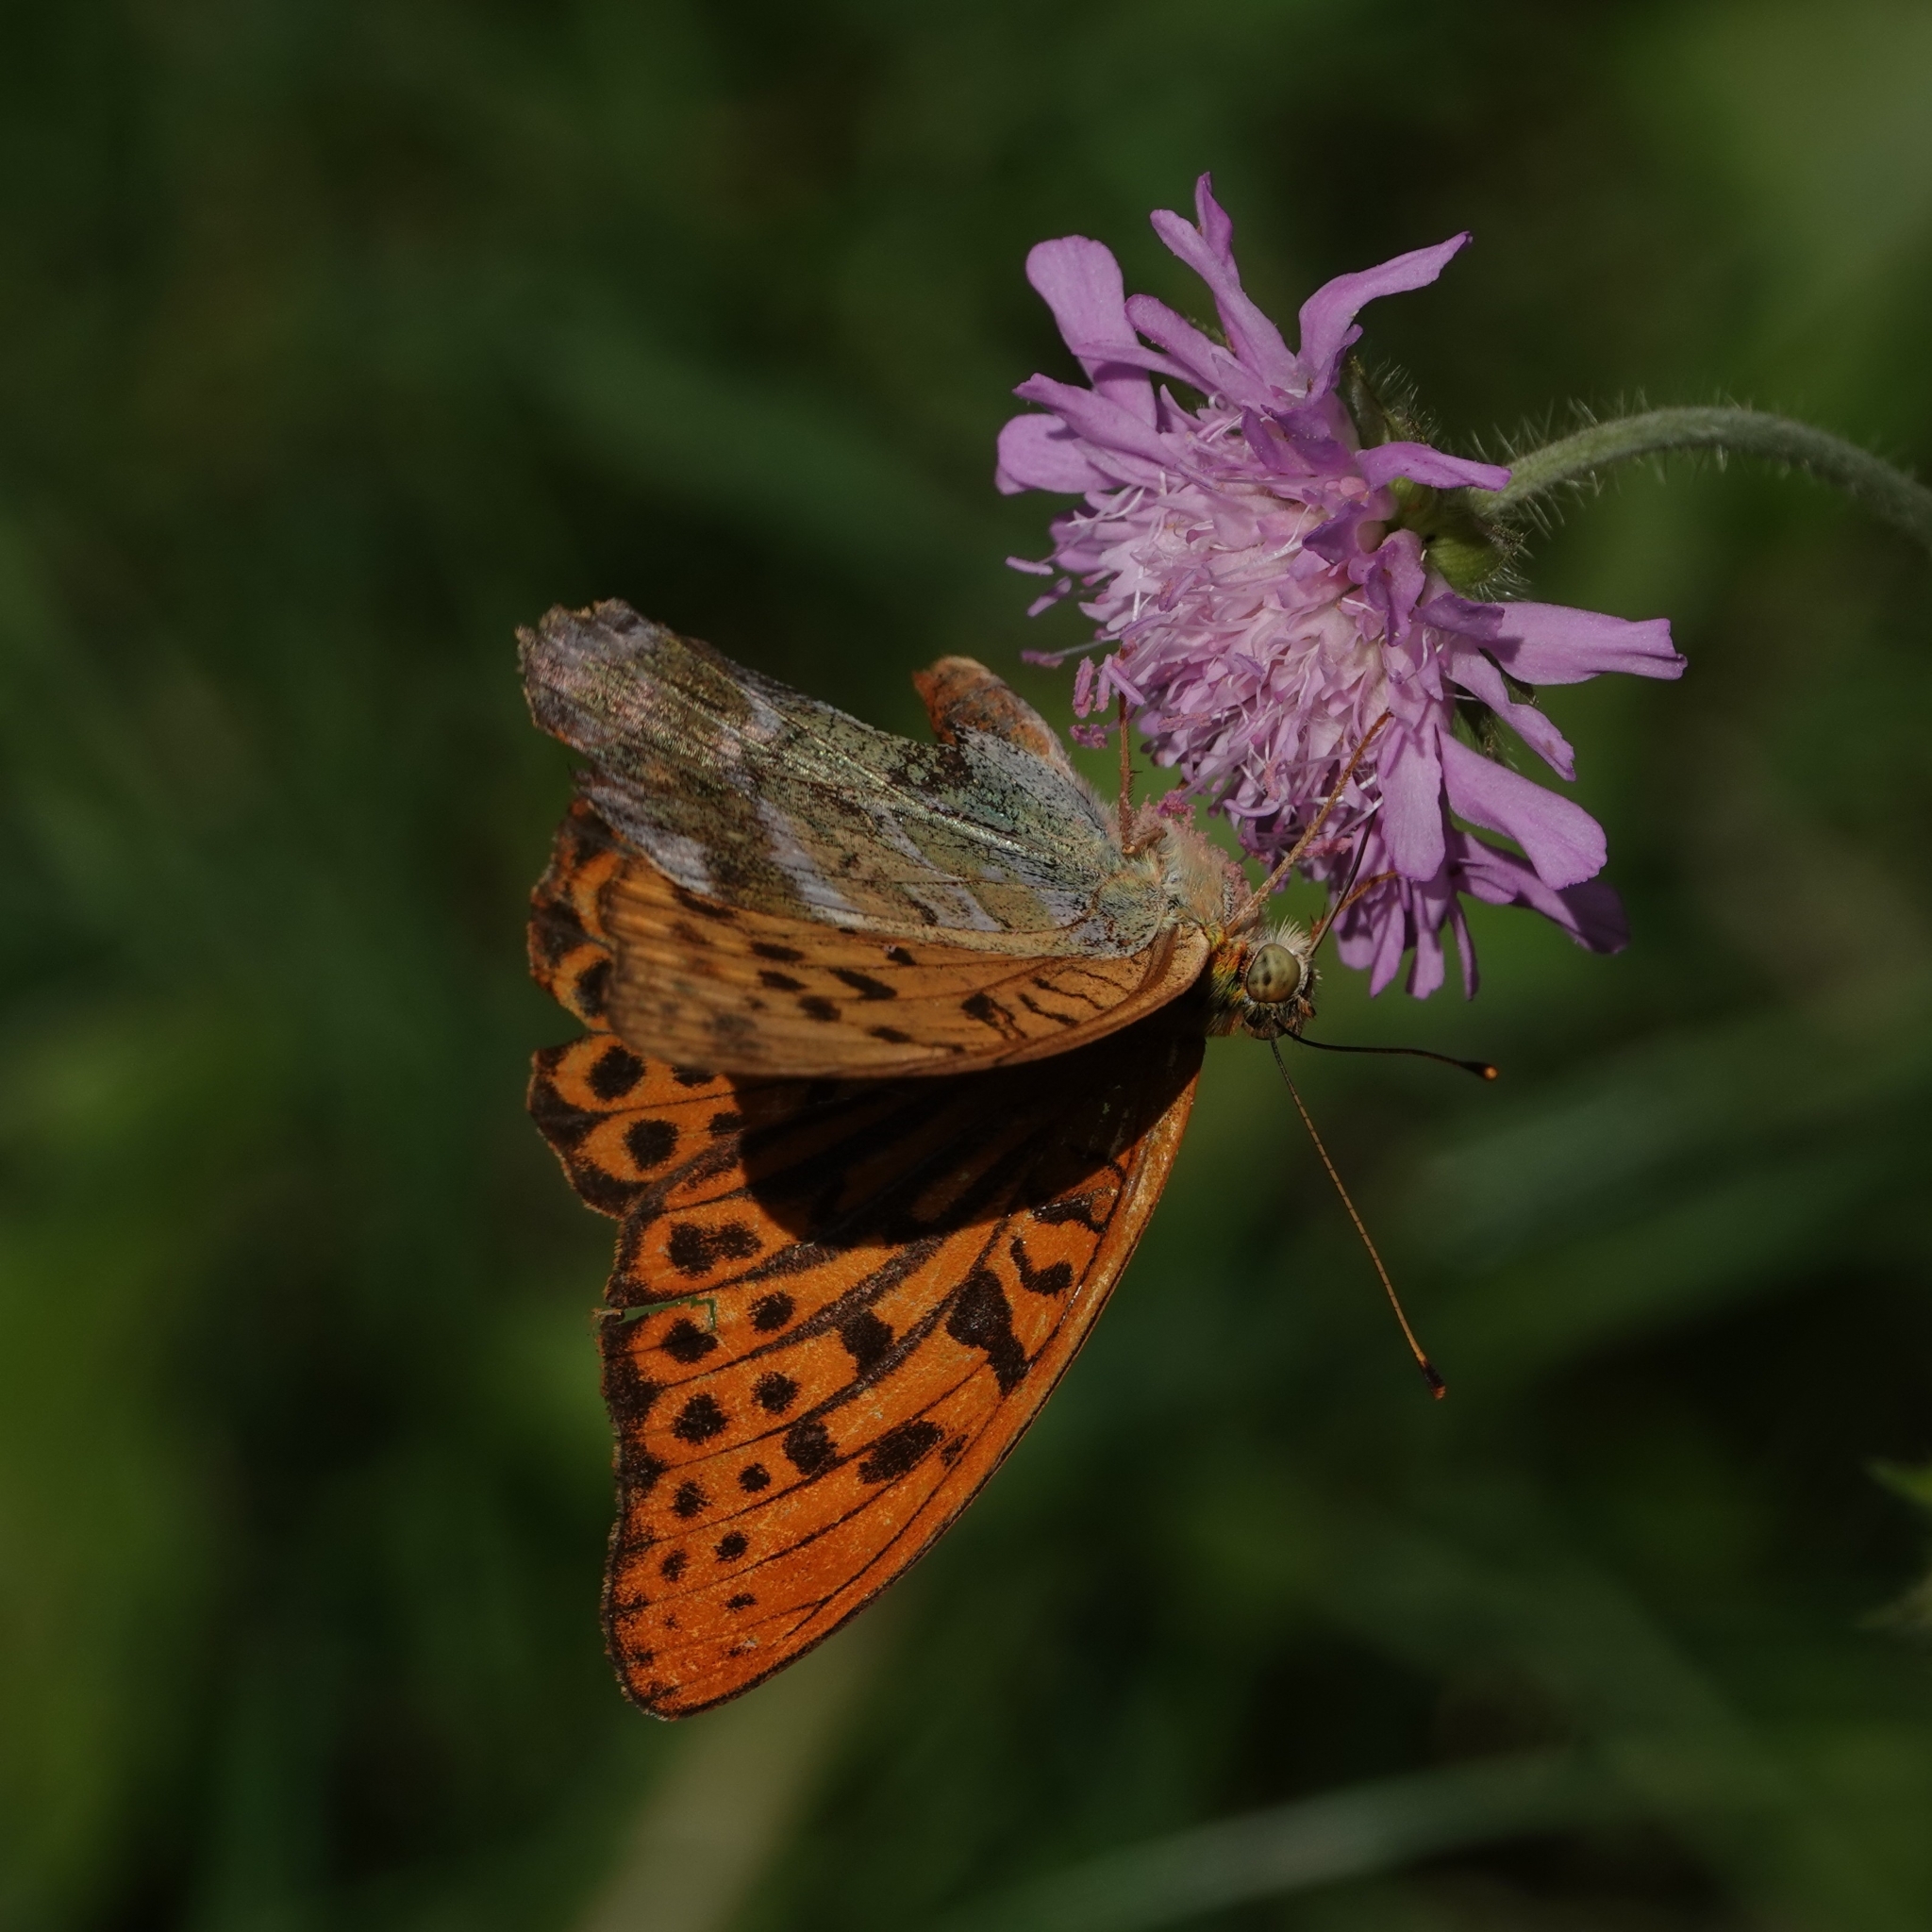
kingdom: Animalia
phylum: Arthropoda
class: Insecta
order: Lepidoptera
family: Nymphalidae
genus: Argynnis
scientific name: Argynnis paphia
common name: Silver-washed fritillary
